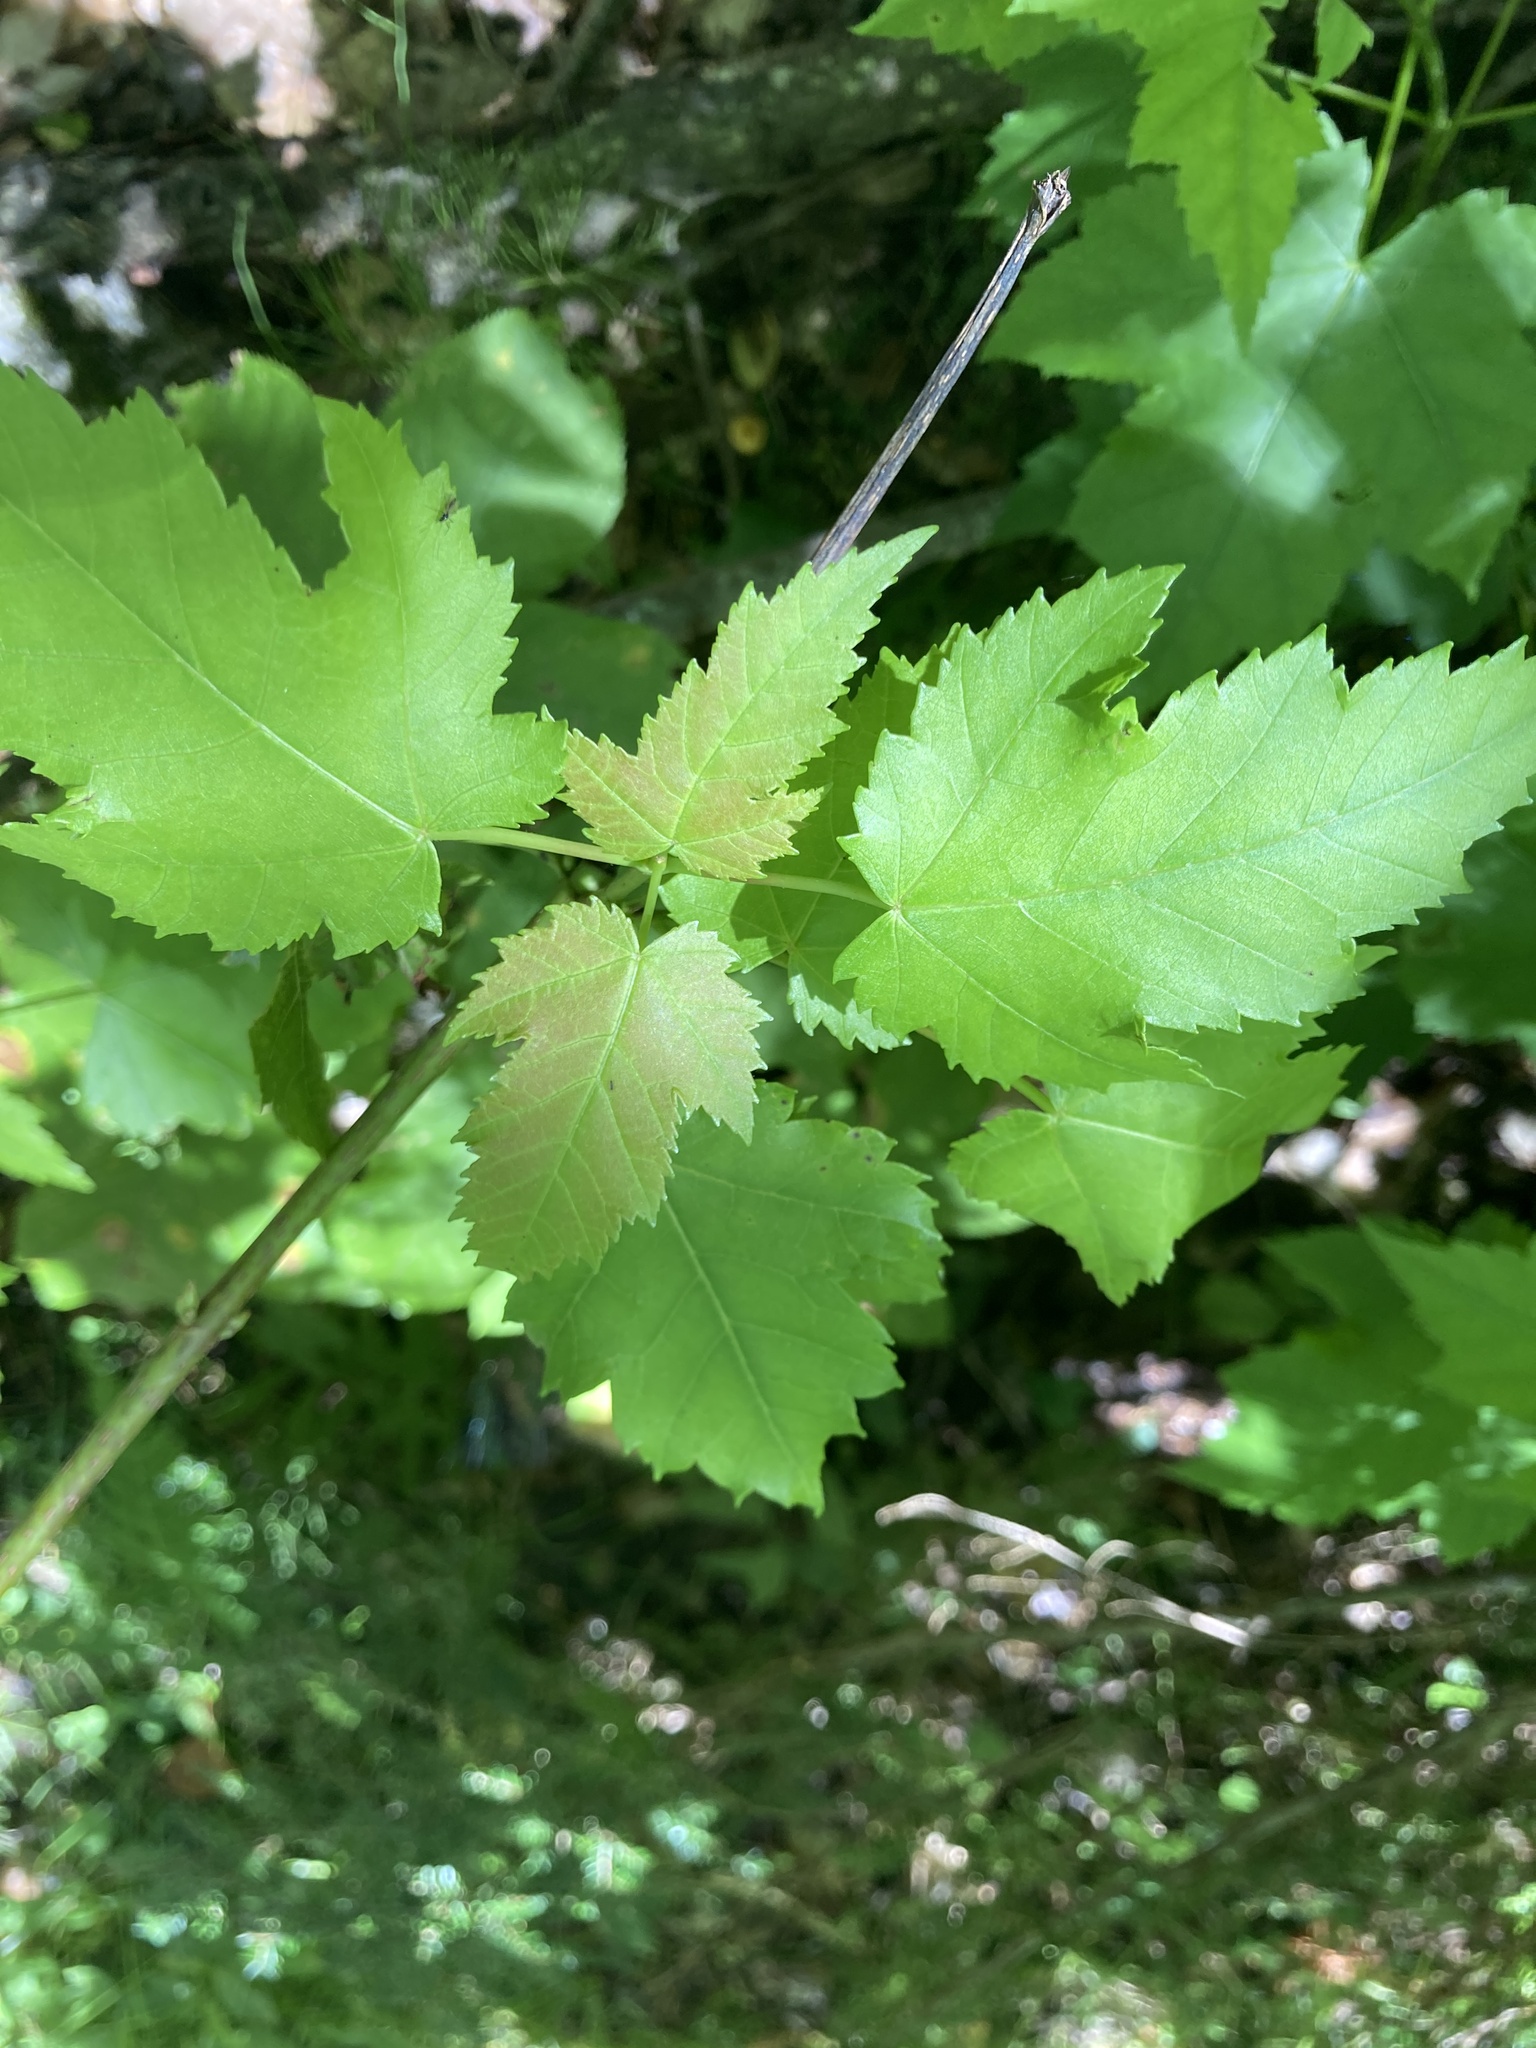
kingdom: Plantae
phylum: Tracheophyta
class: Magnoliopsida
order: Sapindales
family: Sapindaceae
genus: Acer
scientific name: Acer rubrum
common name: Red maple
